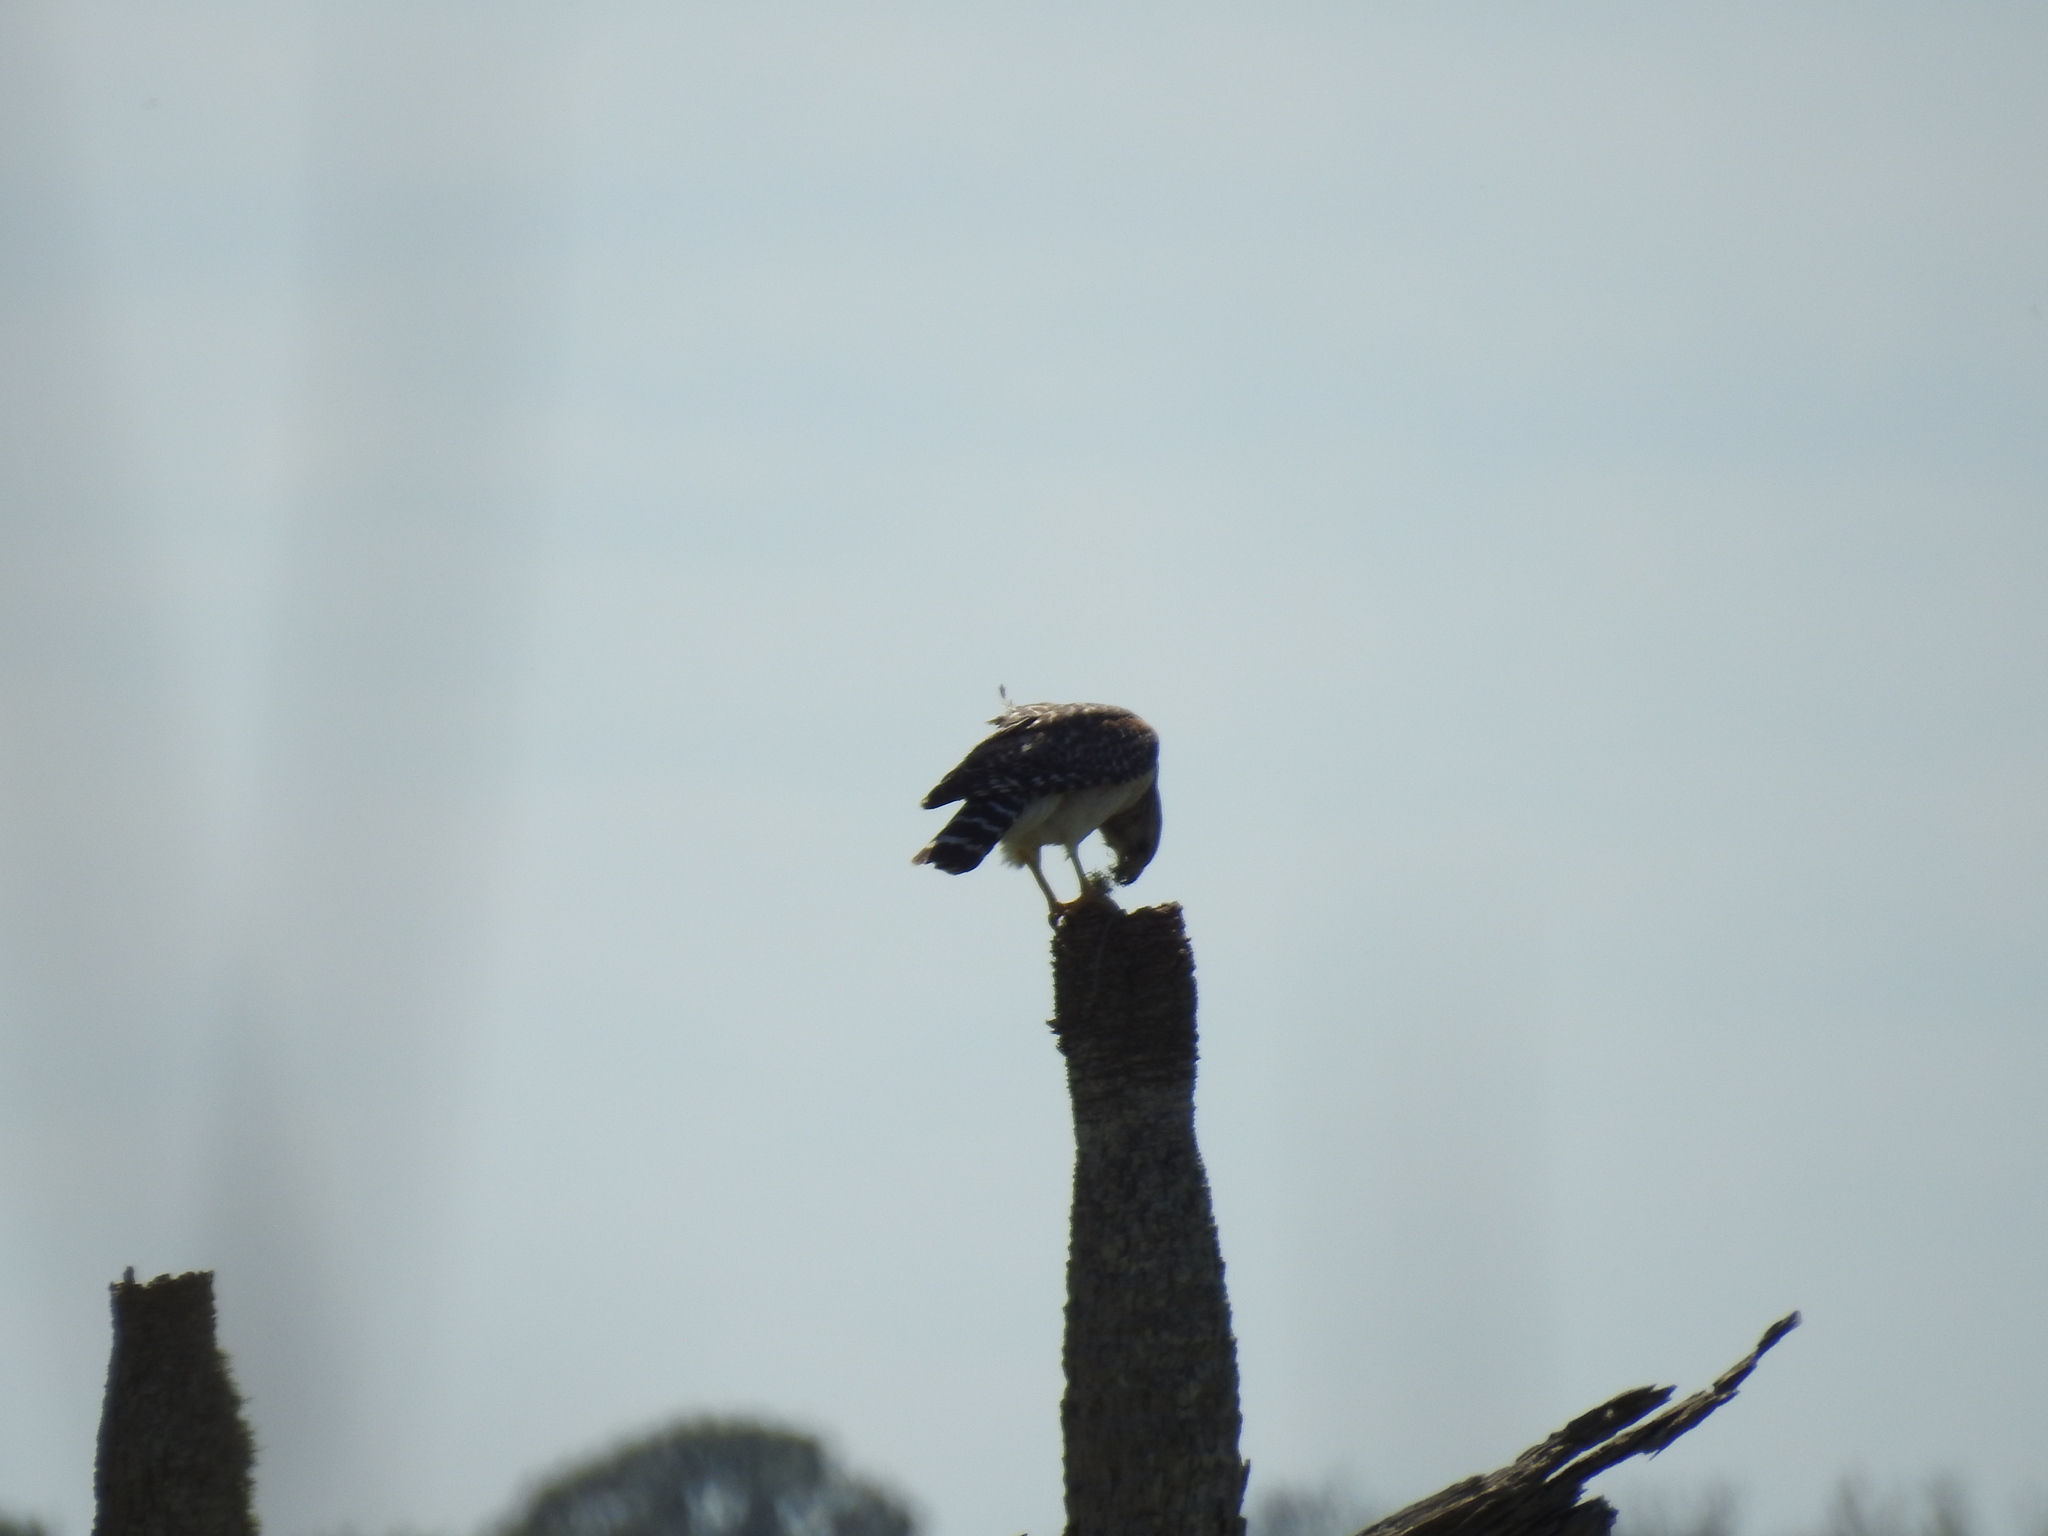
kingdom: Animalia
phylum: Chordata
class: Aves
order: Accipitriformes
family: Accipitridae
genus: Buteo
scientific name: Buteo lineatus
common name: Red-shouldered hawk
